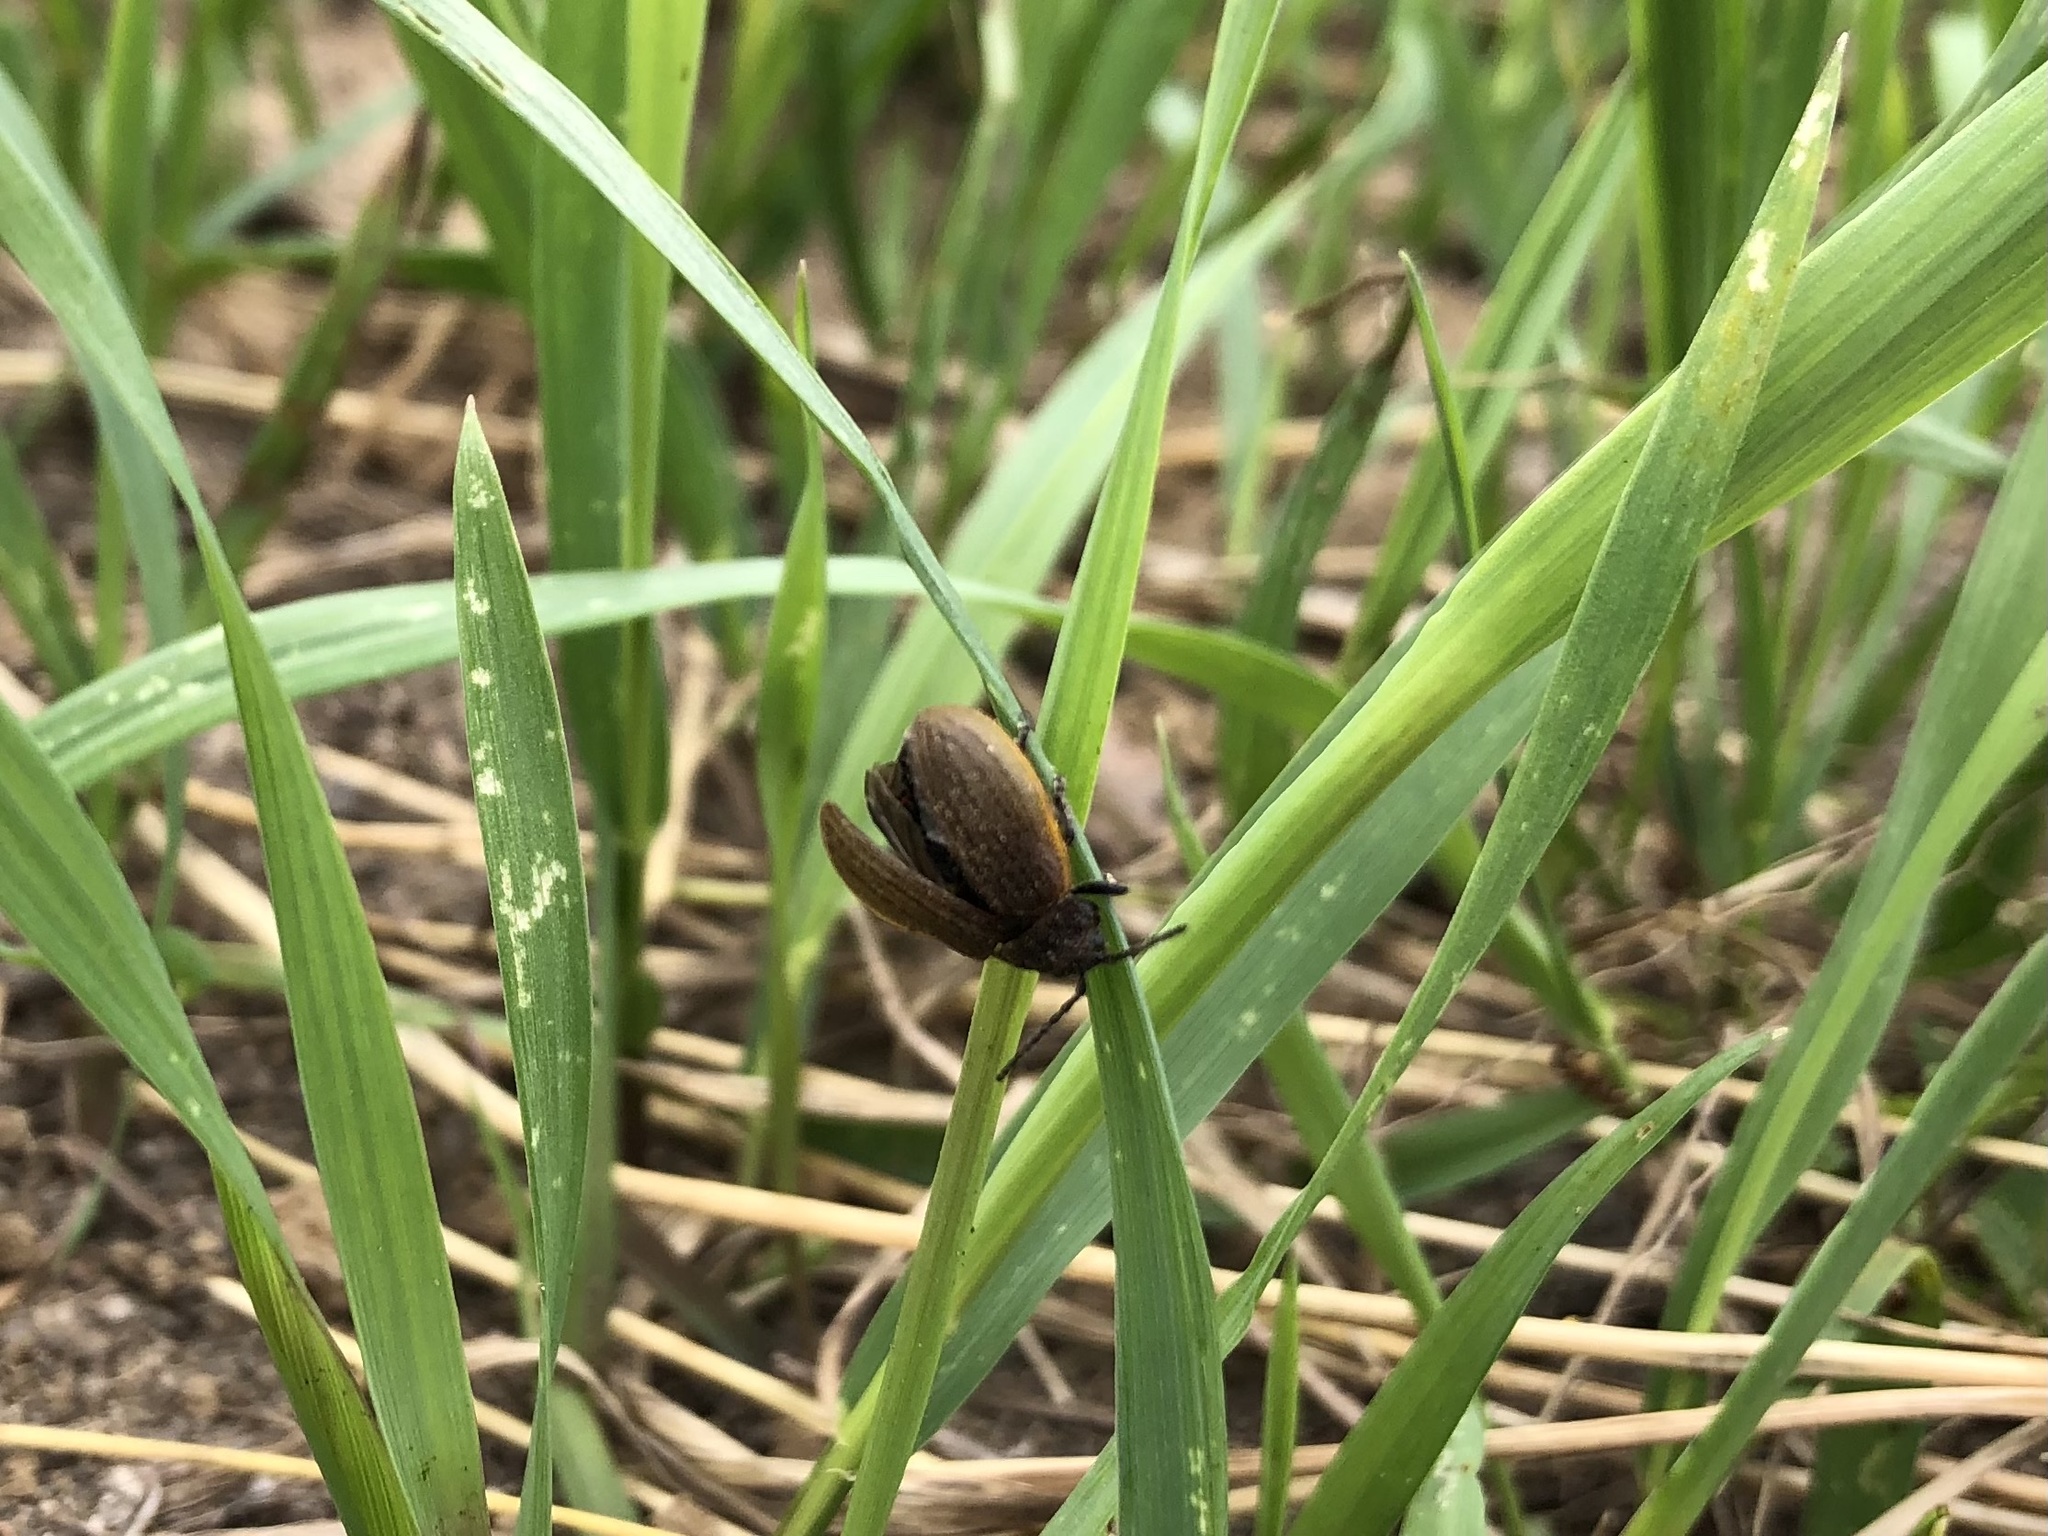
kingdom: Animalia
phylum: Arthropoda
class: Insecta
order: Coleoptera
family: Chrysomelidae
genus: Galeruca
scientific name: Galeruca pomonae
